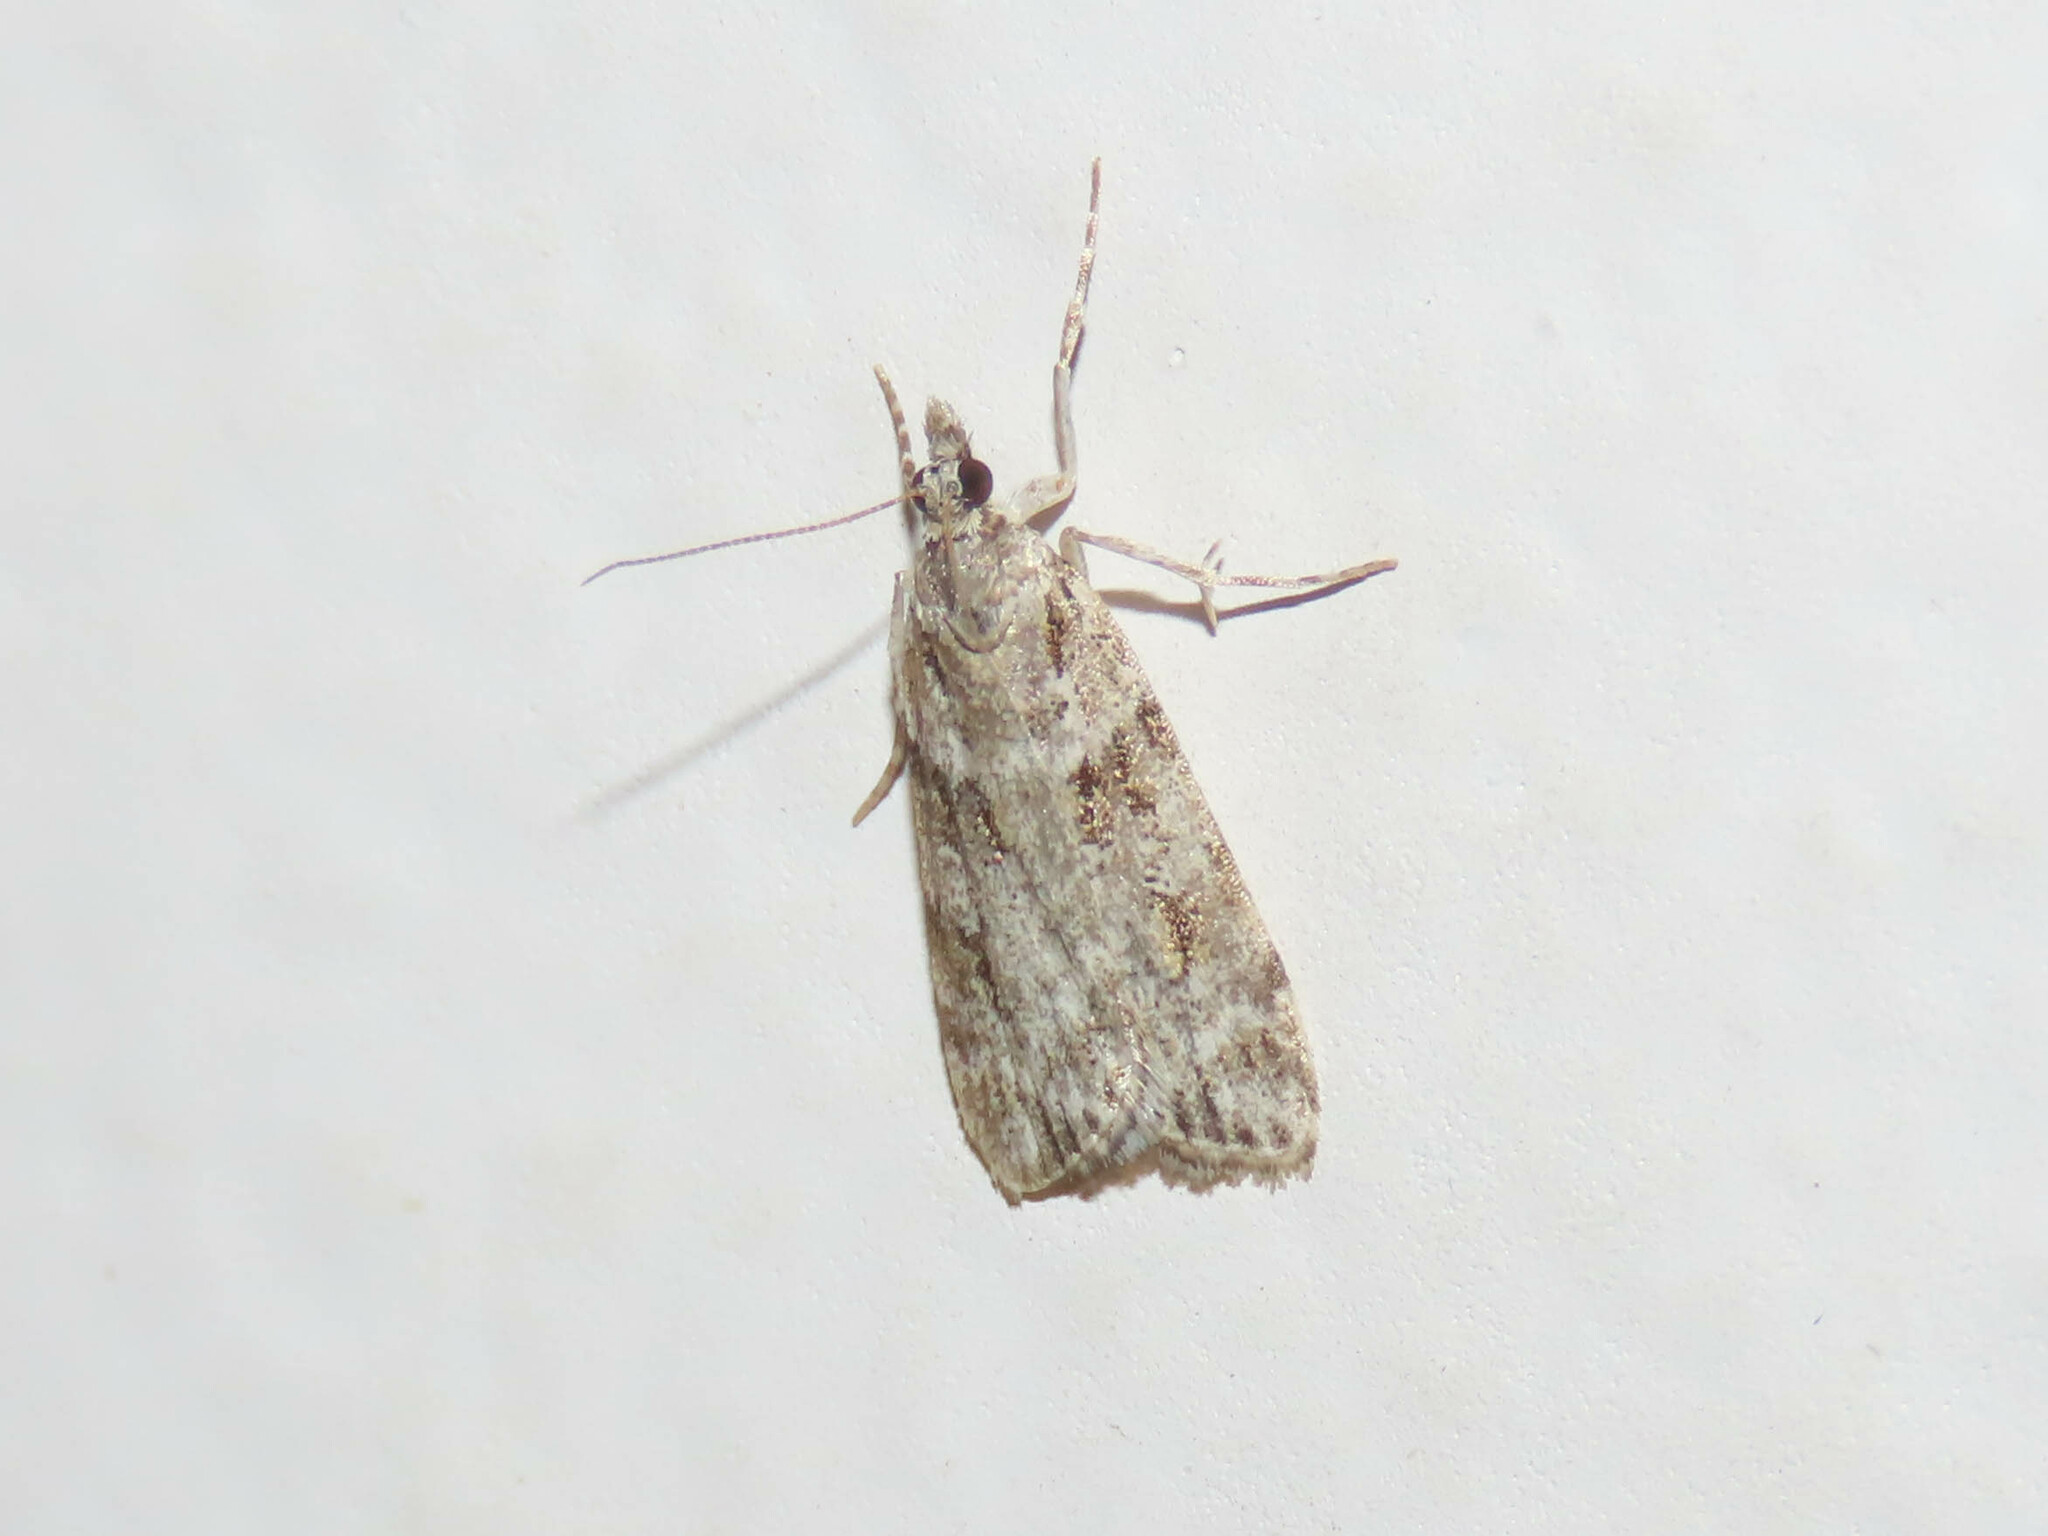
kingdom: Animalia
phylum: Arthropoda
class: Insecta
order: Lepidoptera
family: Crambidae
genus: Scoparia
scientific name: Scoparia biplagialis
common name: Double-striped scoparia moth
